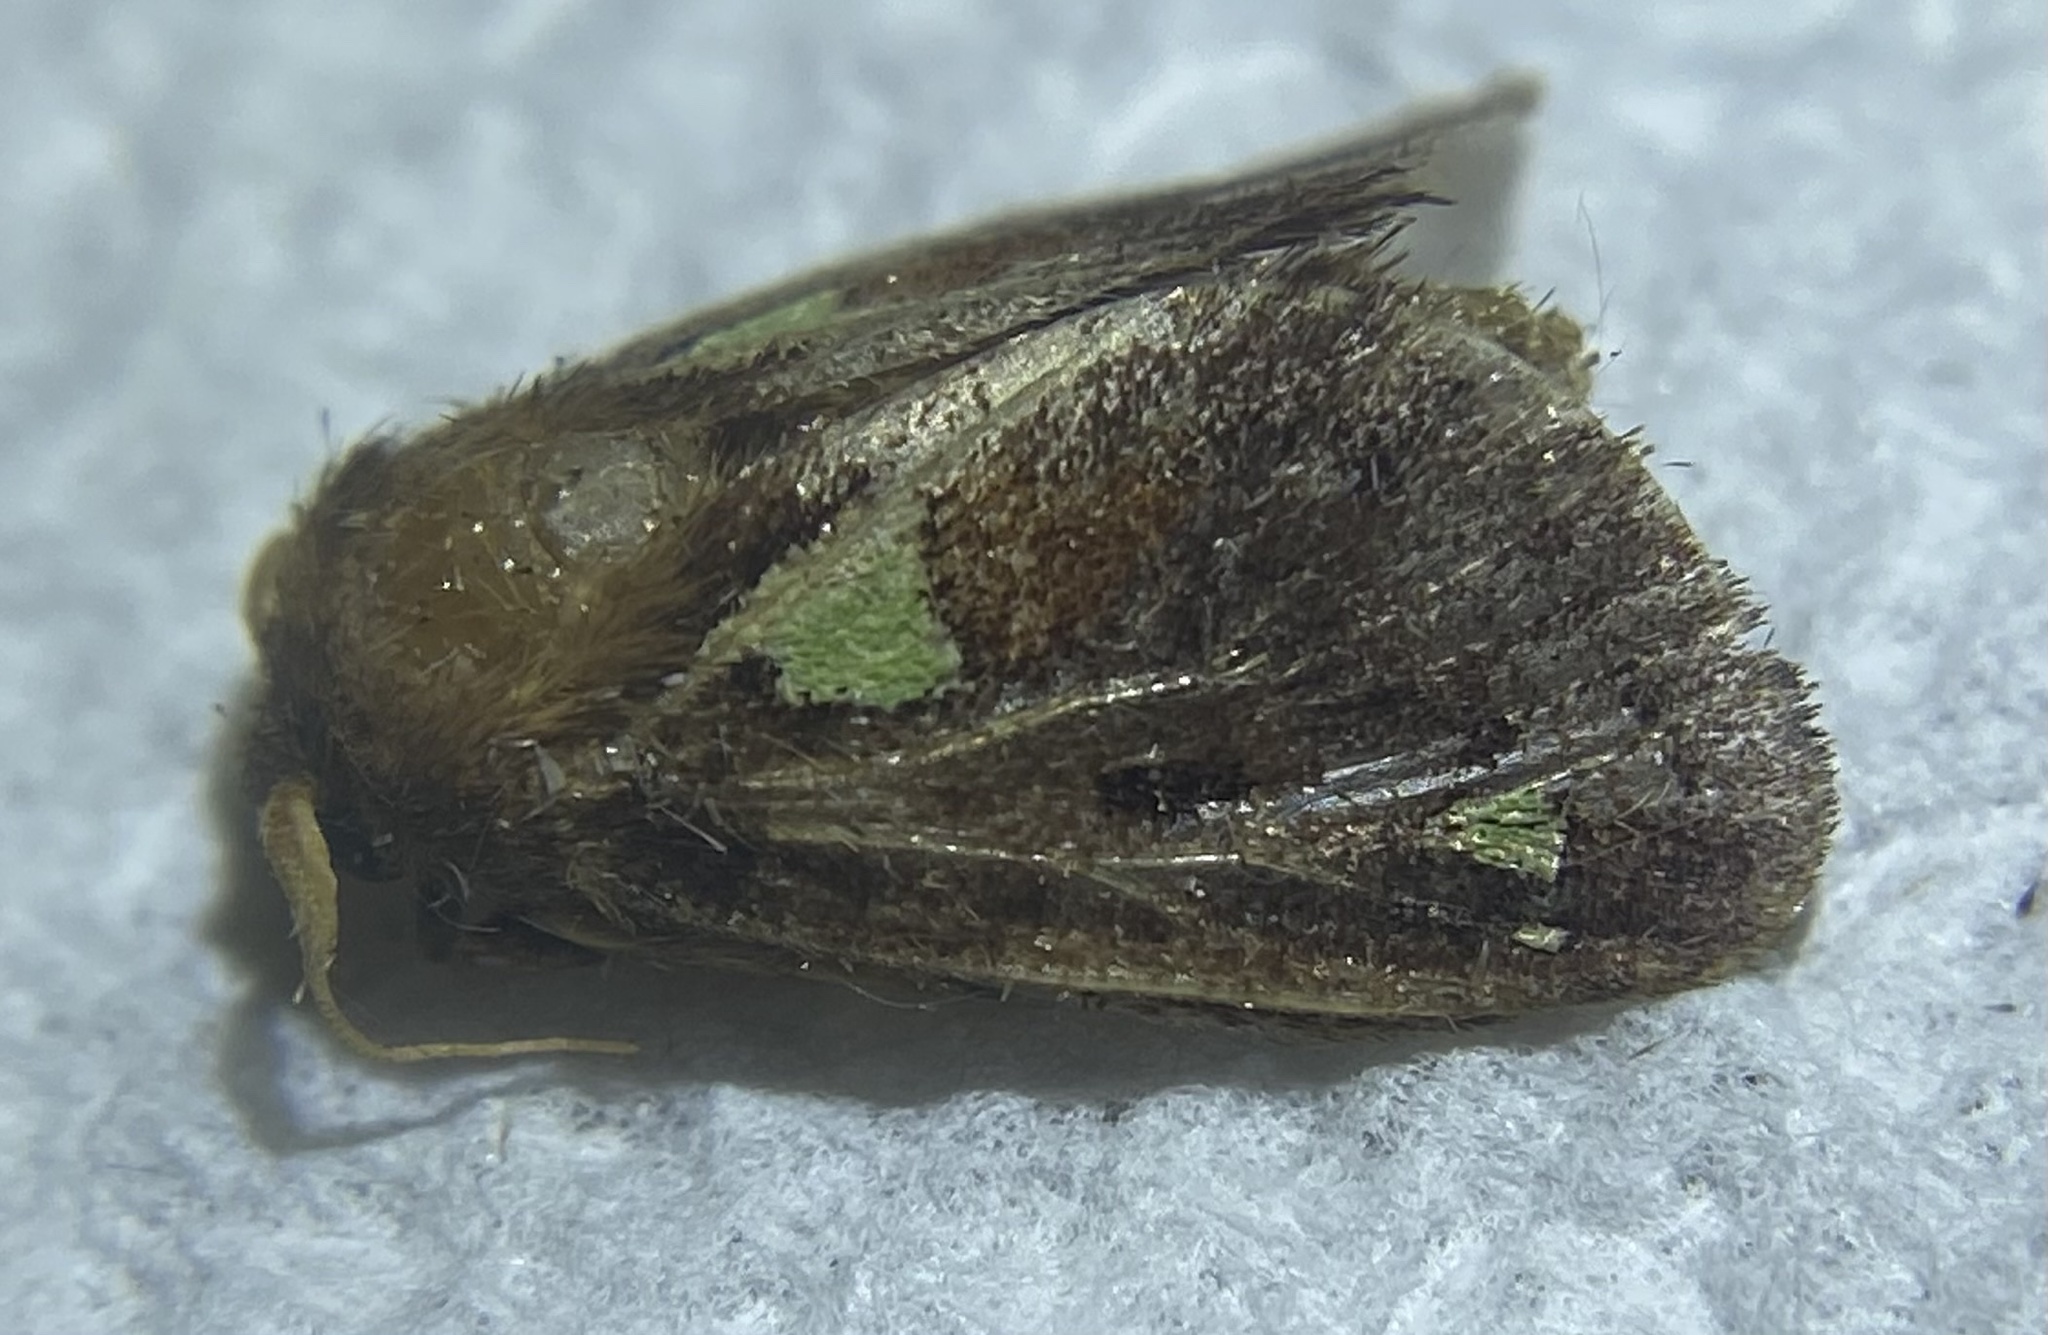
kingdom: Animalia
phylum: Arthropoda
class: Insecta
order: Lepidoptera
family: Limacodidae
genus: Euclea
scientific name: Euclea delphinii
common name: Spiny oak-slug moth
